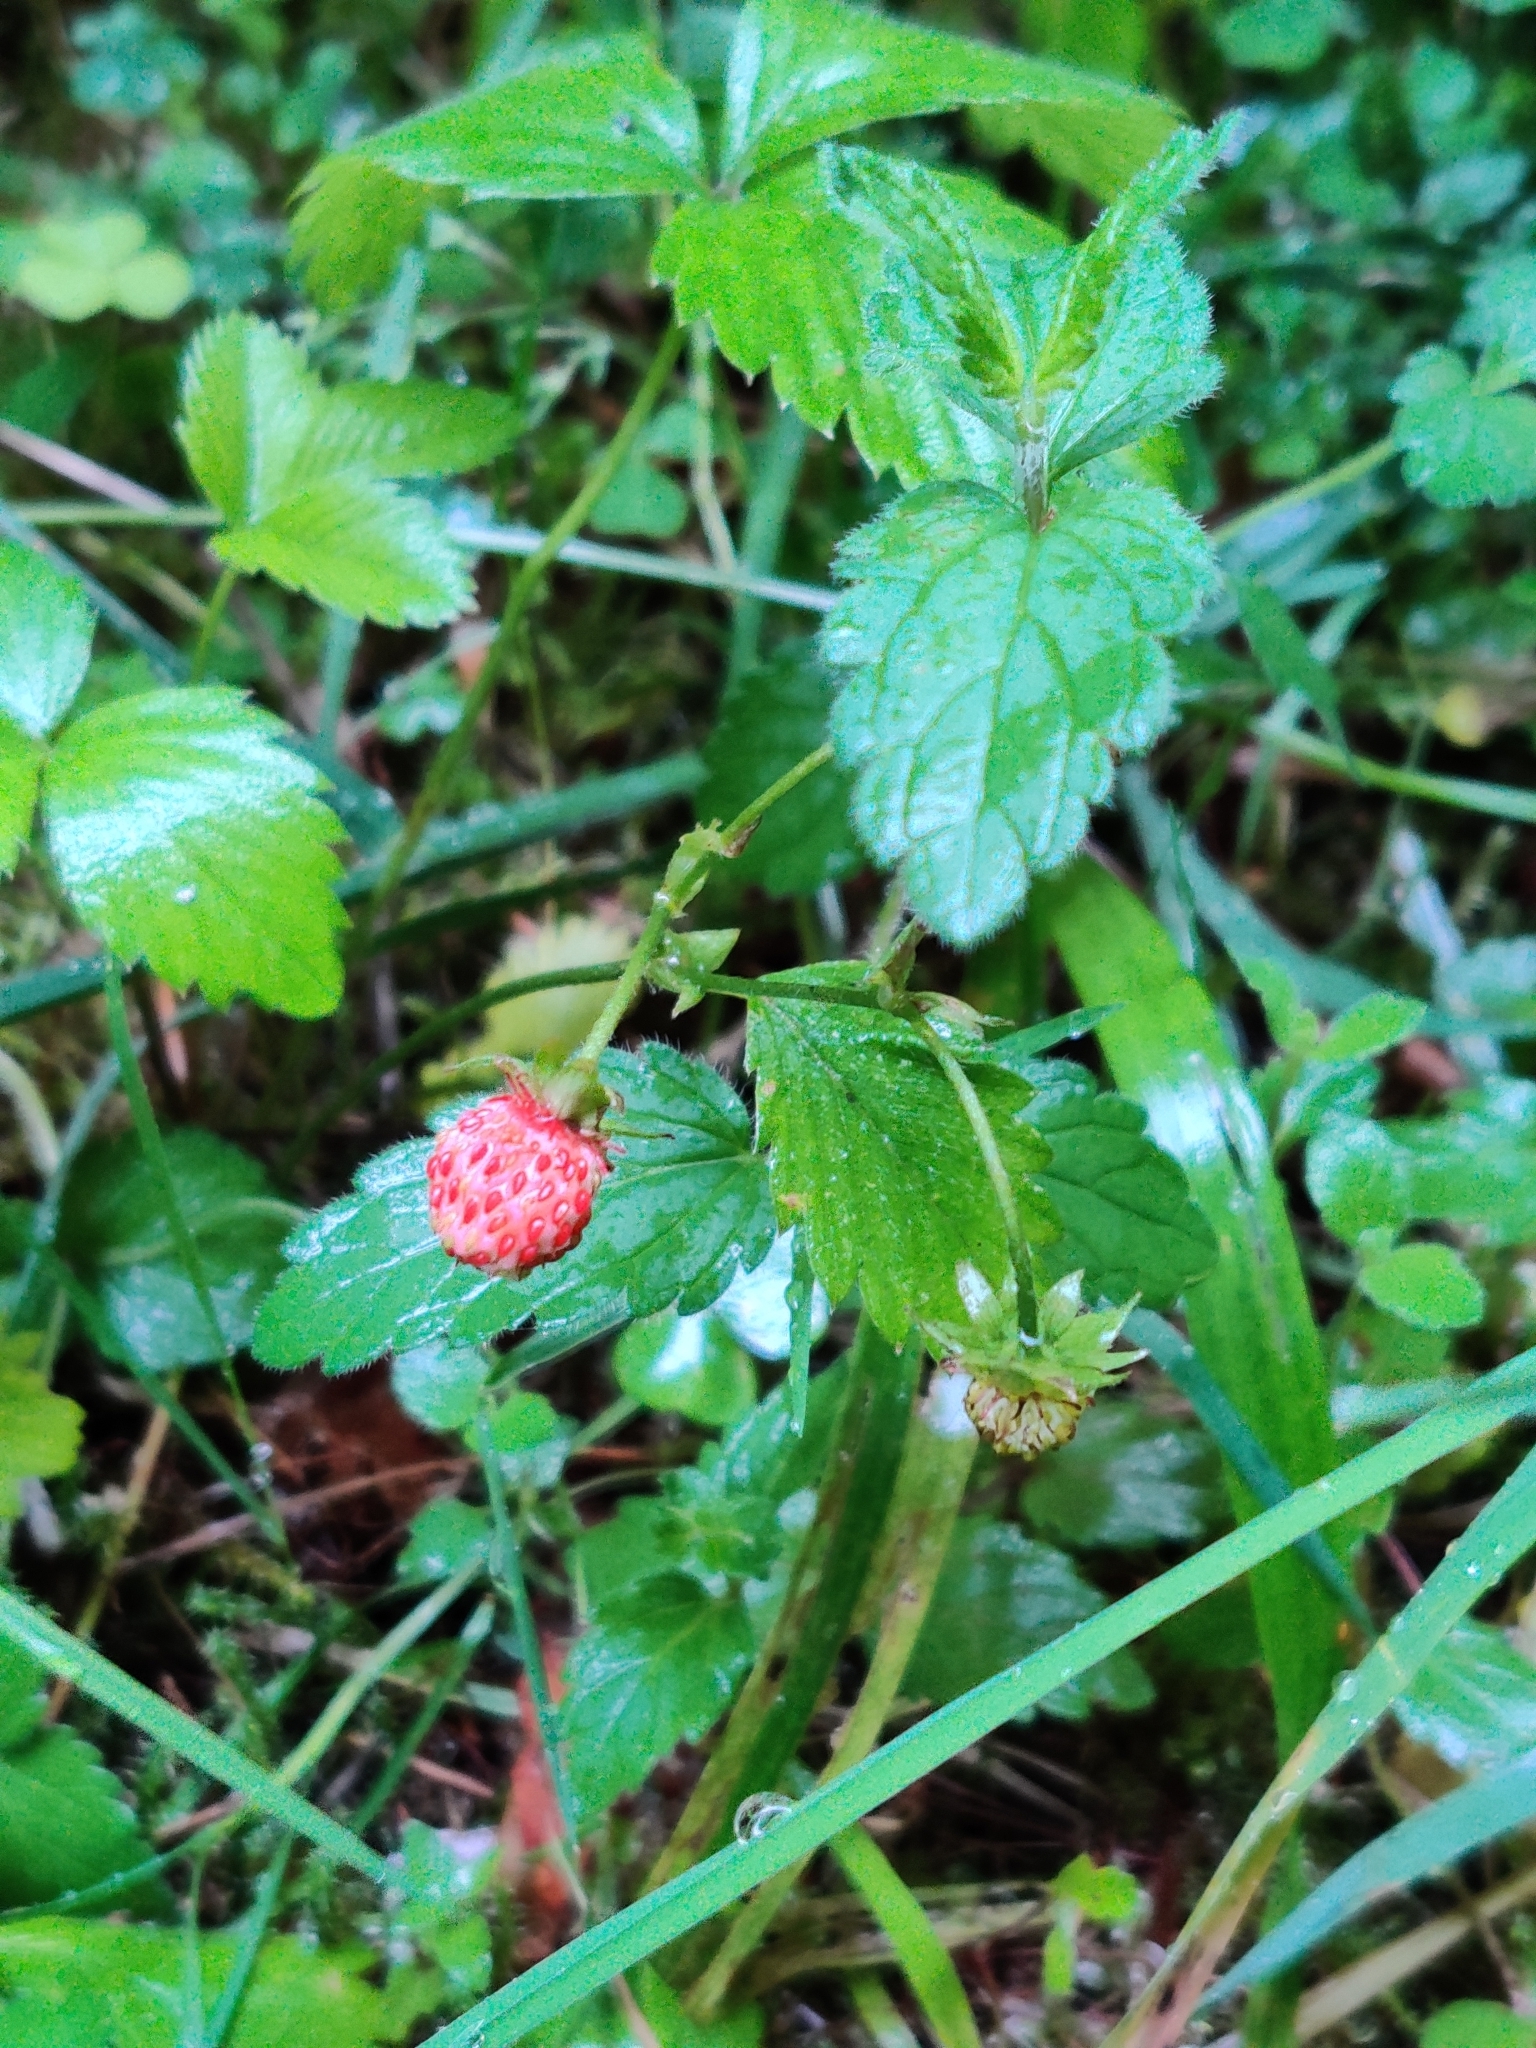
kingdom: Plantae
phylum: Tracheophyta
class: Magnoliopsida
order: Rosales
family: Rosaceae
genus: Fragaria
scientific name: Fragaria vesca
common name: Wild strawberry
